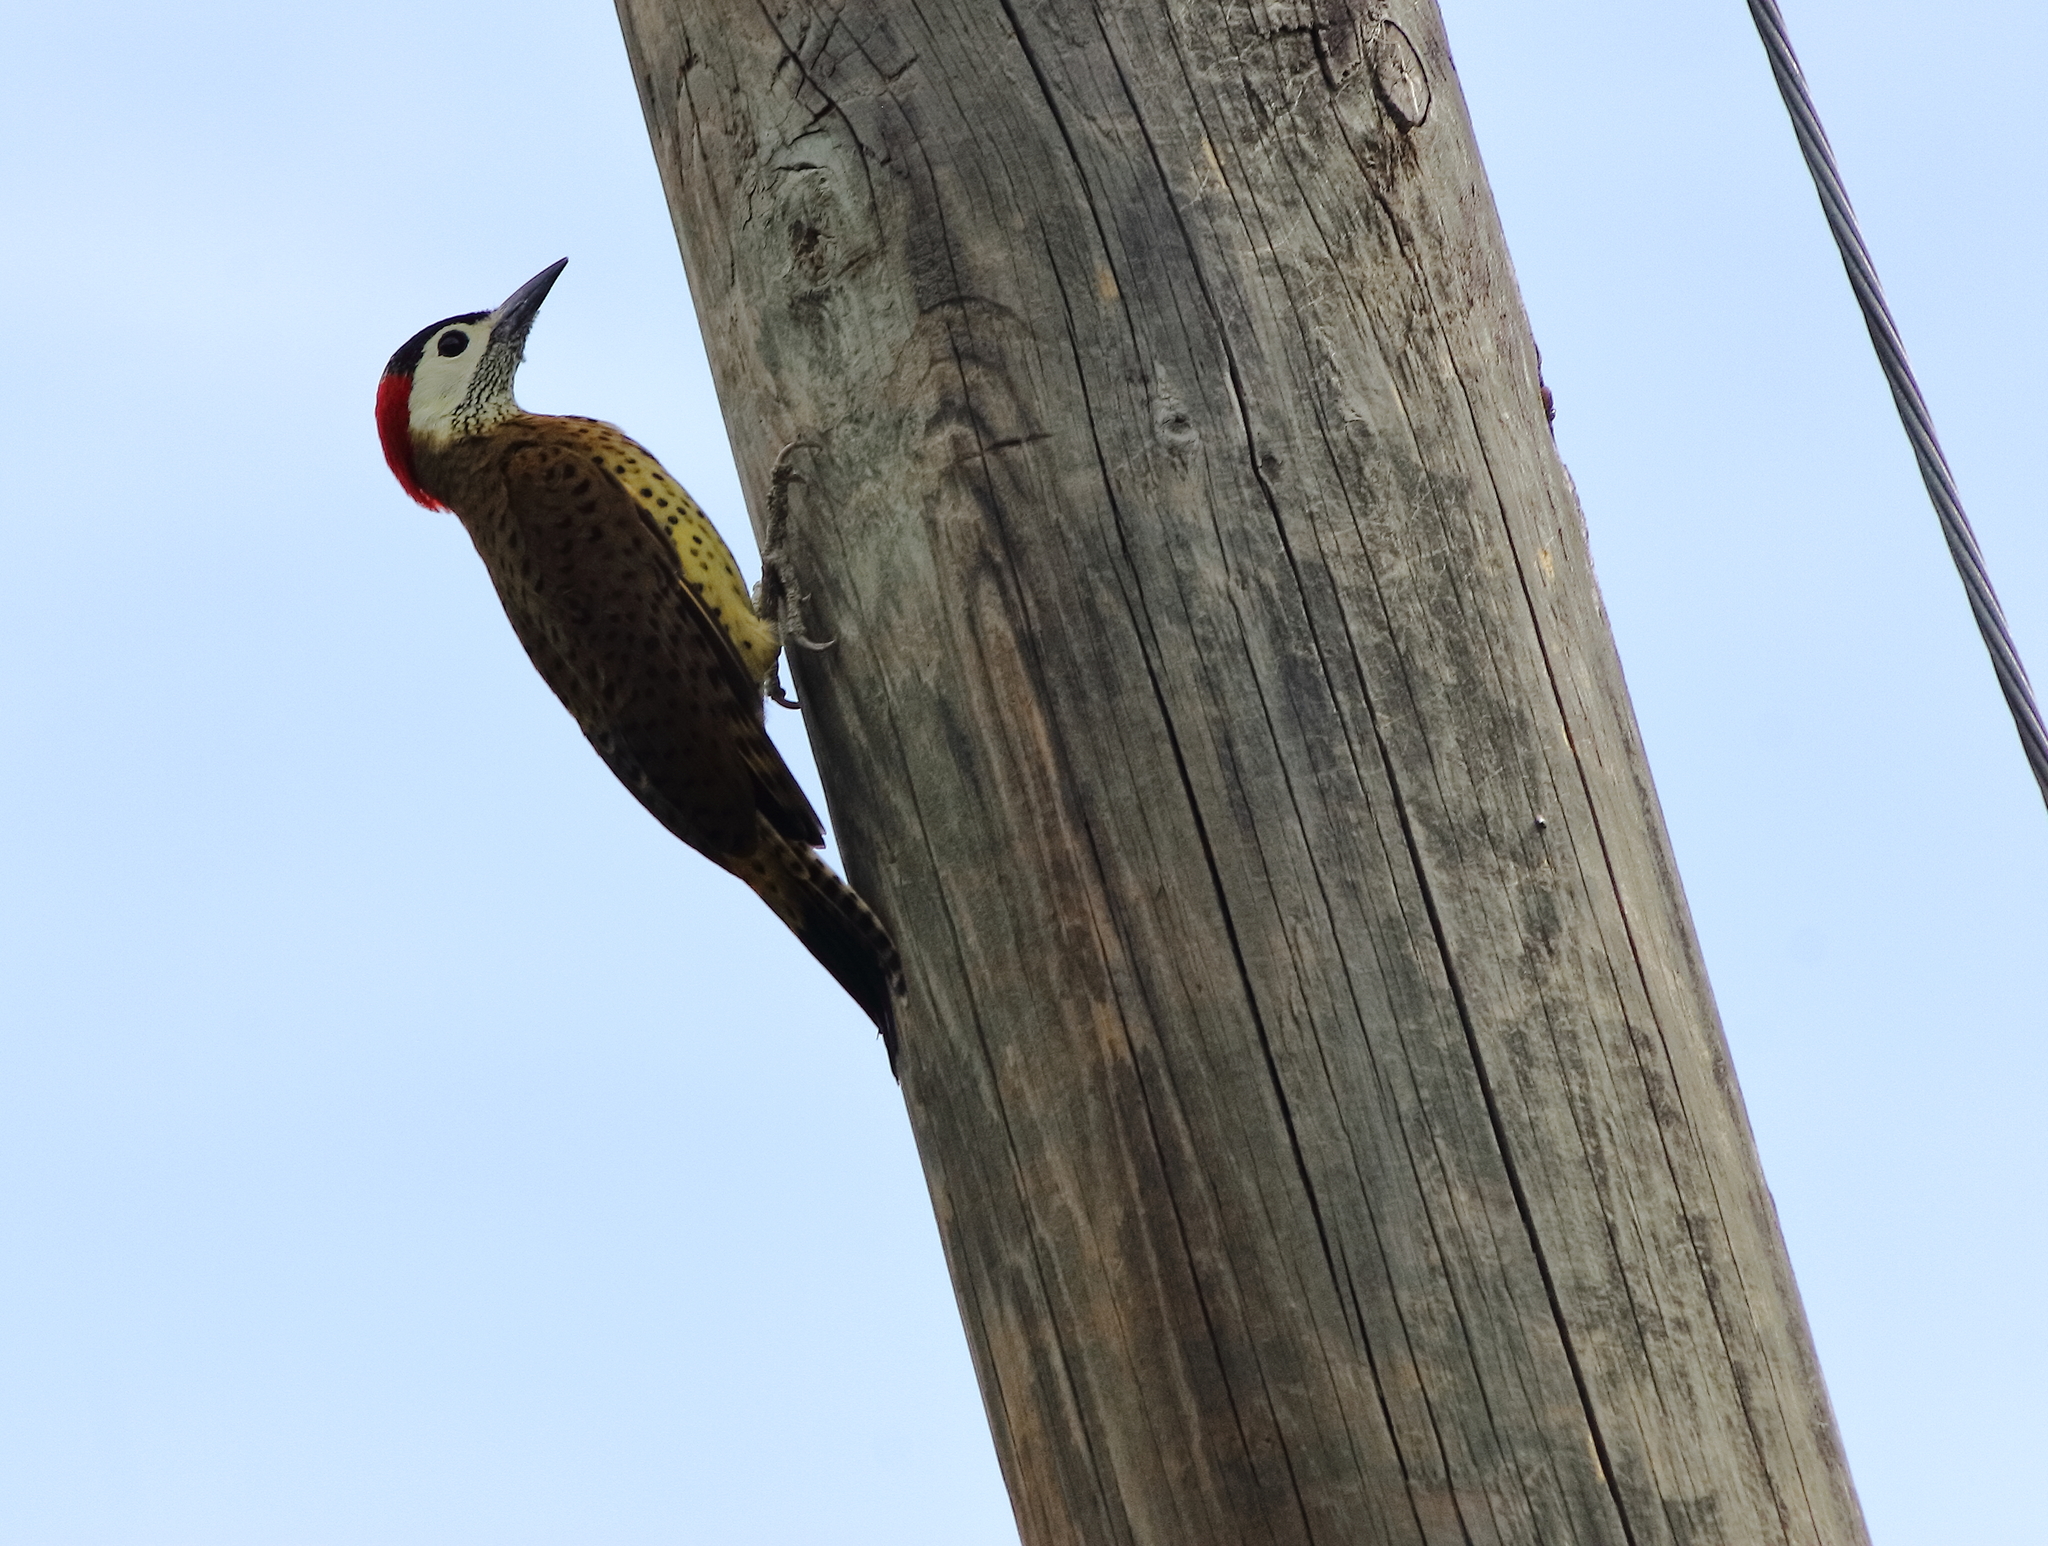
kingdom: Animalia
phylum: Chordata
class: Aves
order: Piciformes
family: Picidae
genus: Colaptes
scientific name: Colaptes punctigula
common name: Spot-breasted woodpecker
